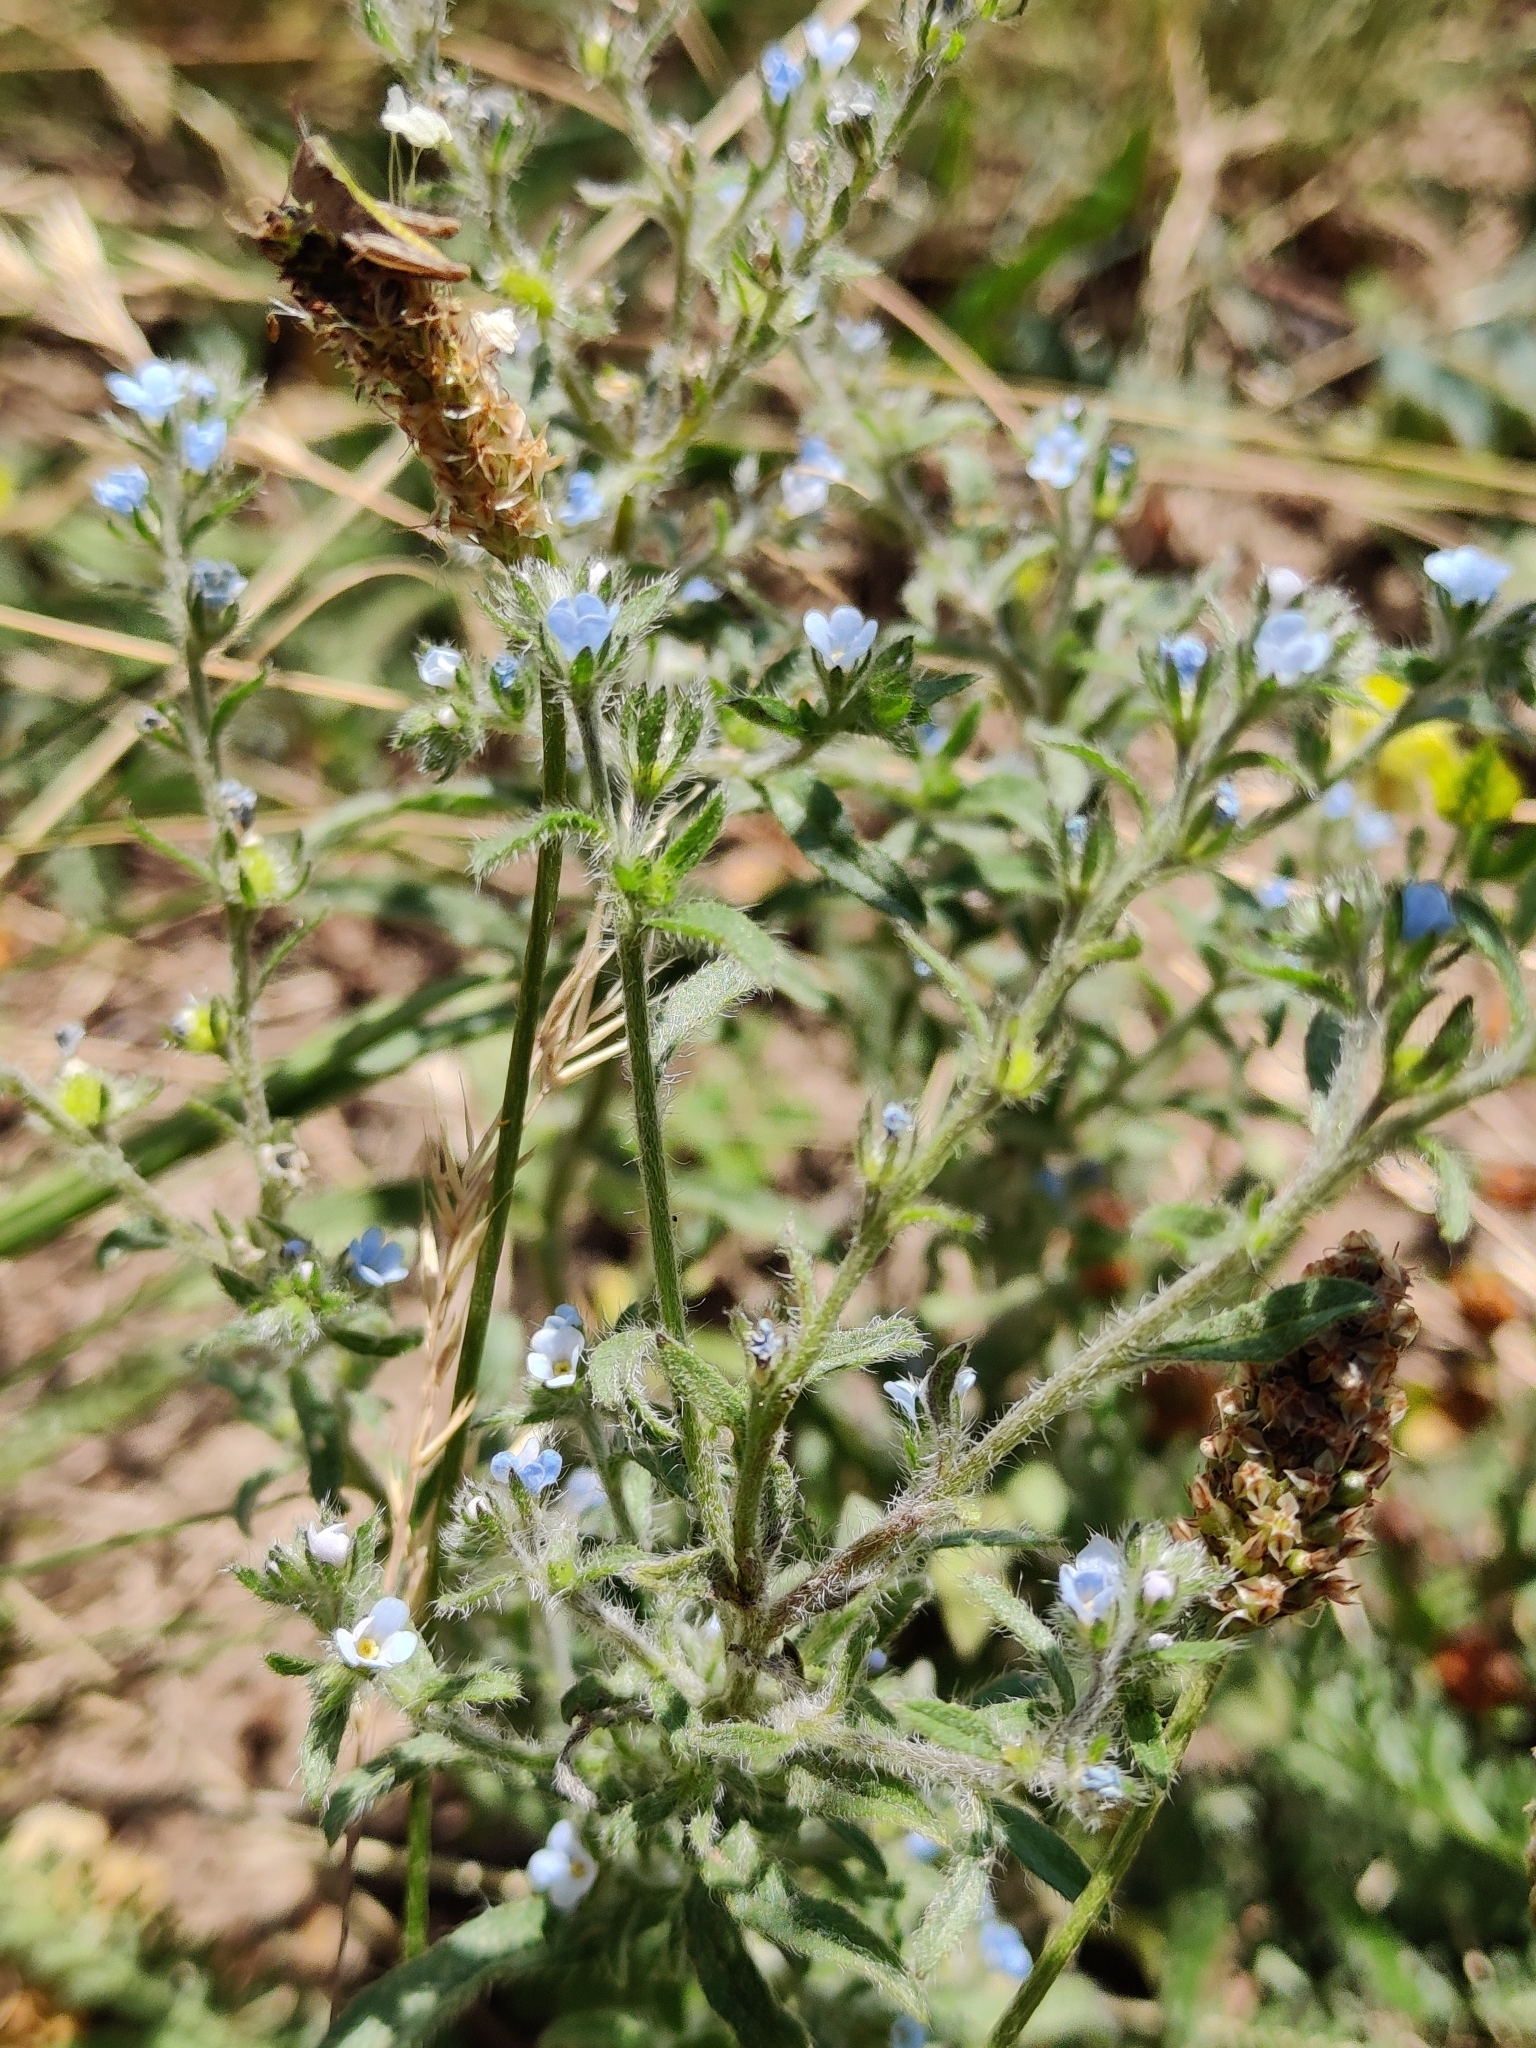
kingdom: Plantae
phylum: Tracheophyta
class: Magnoliopsida
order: Boraginales
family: Boraginaceae
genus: Lappula
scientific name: Lappula squarrosa
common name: European stickseed
